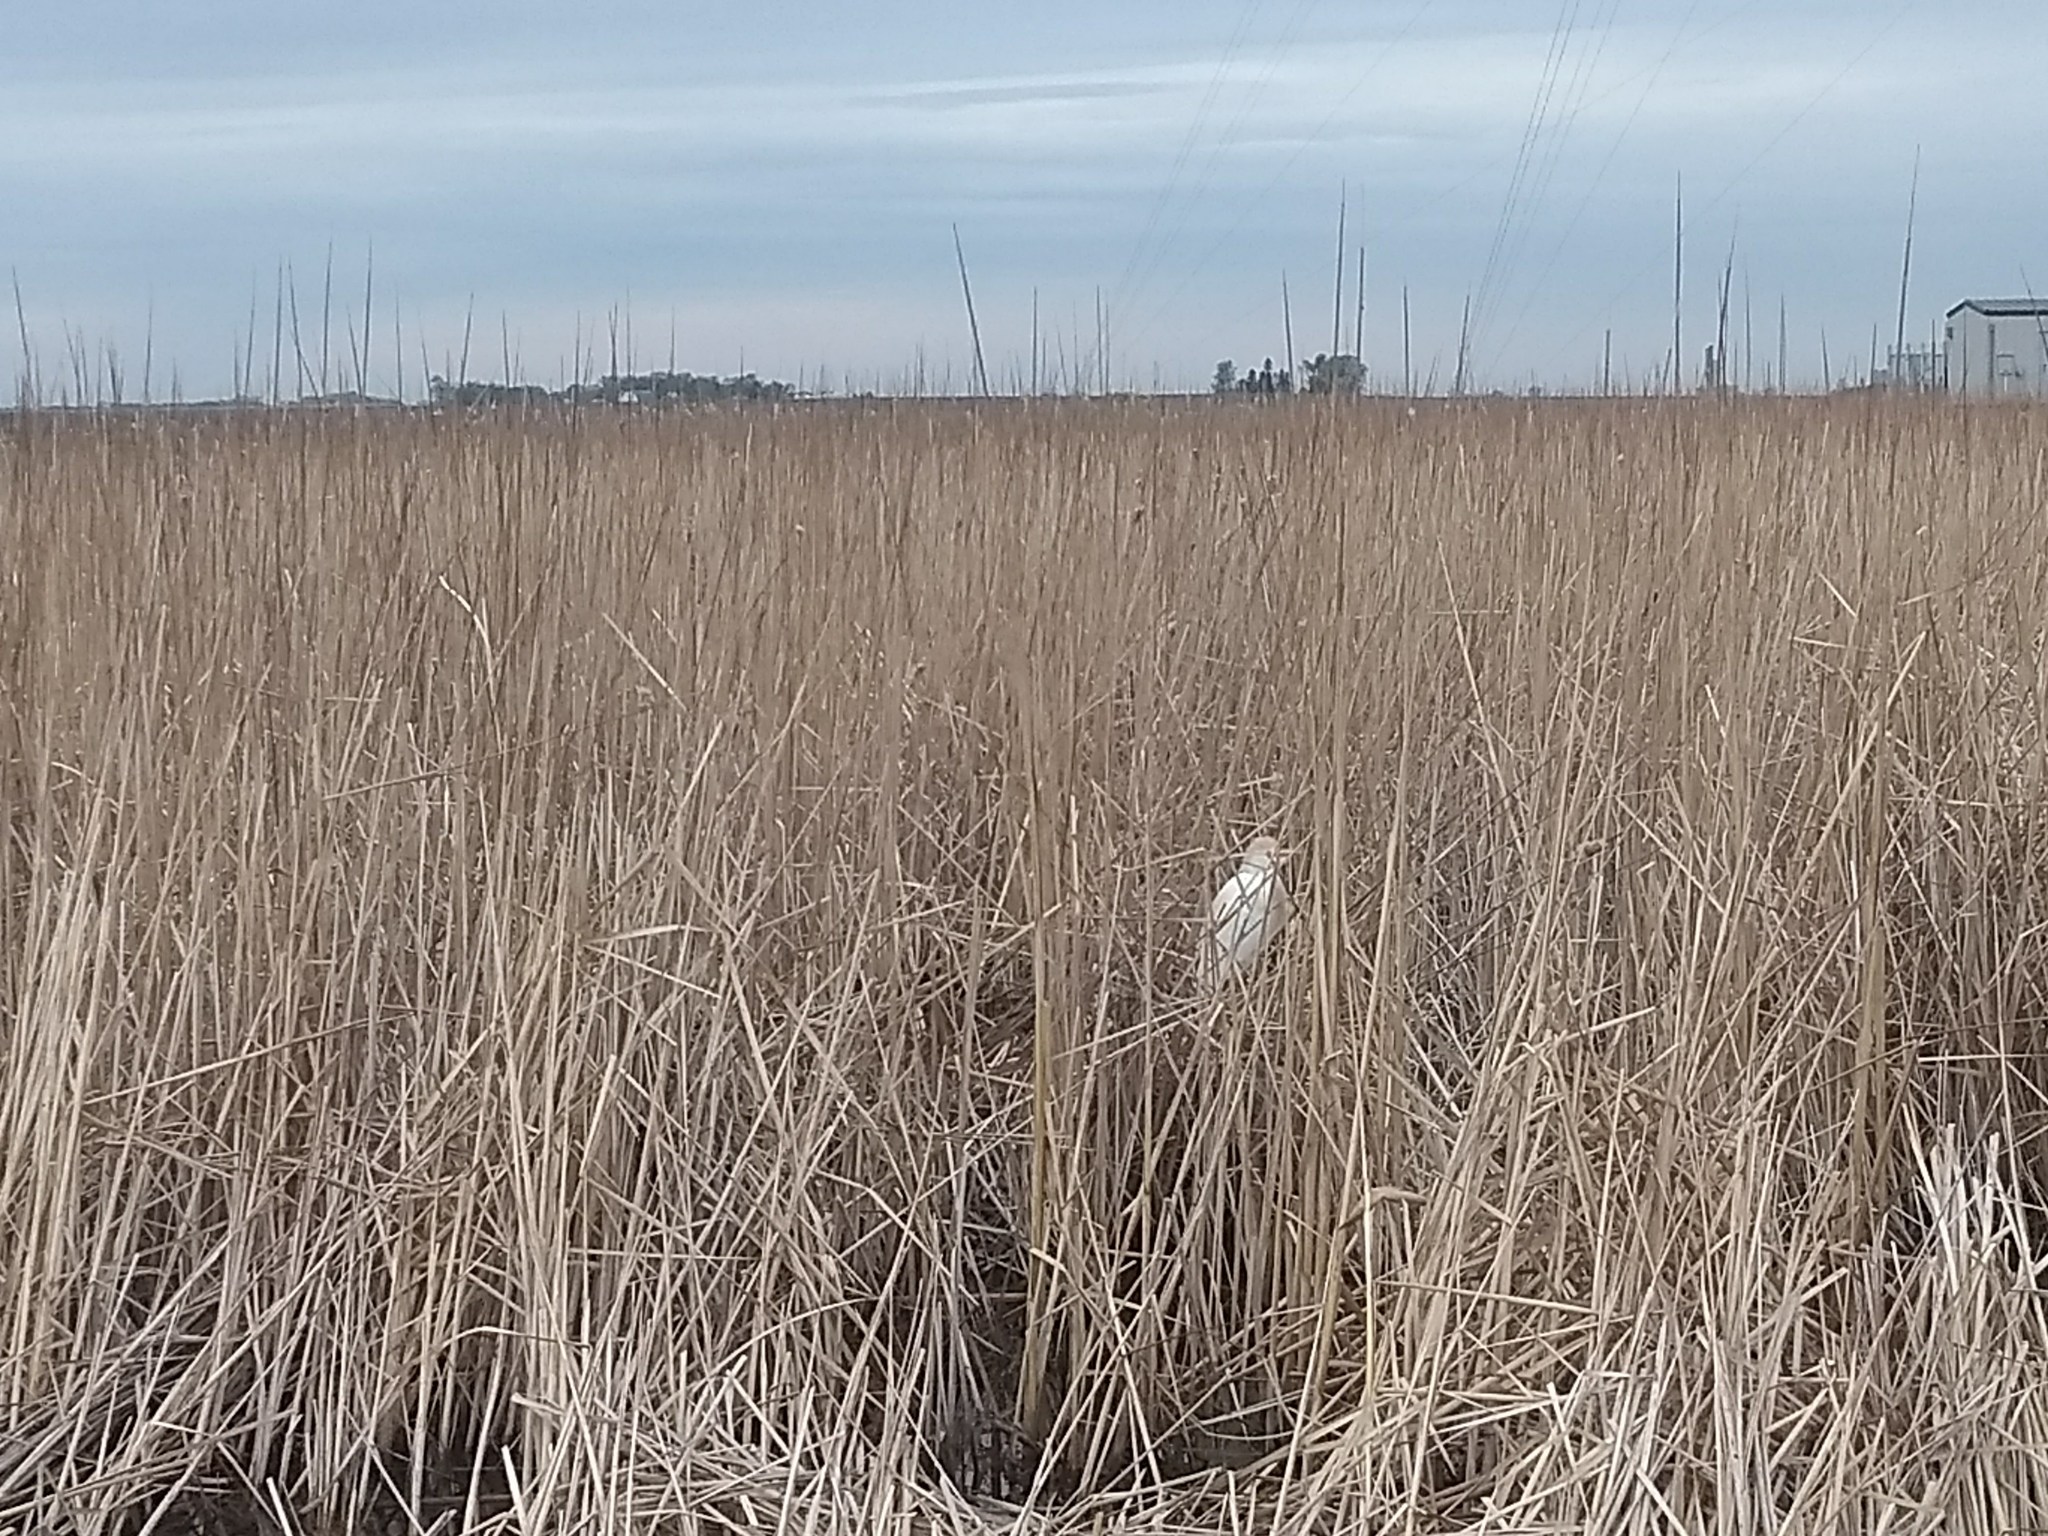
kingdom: Animalia
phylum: Chordata
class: Aves
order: Pelecaniformes
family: Ardeidae
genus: Bubulcus
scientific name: Bubulcus ibis
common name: Cattle egret
